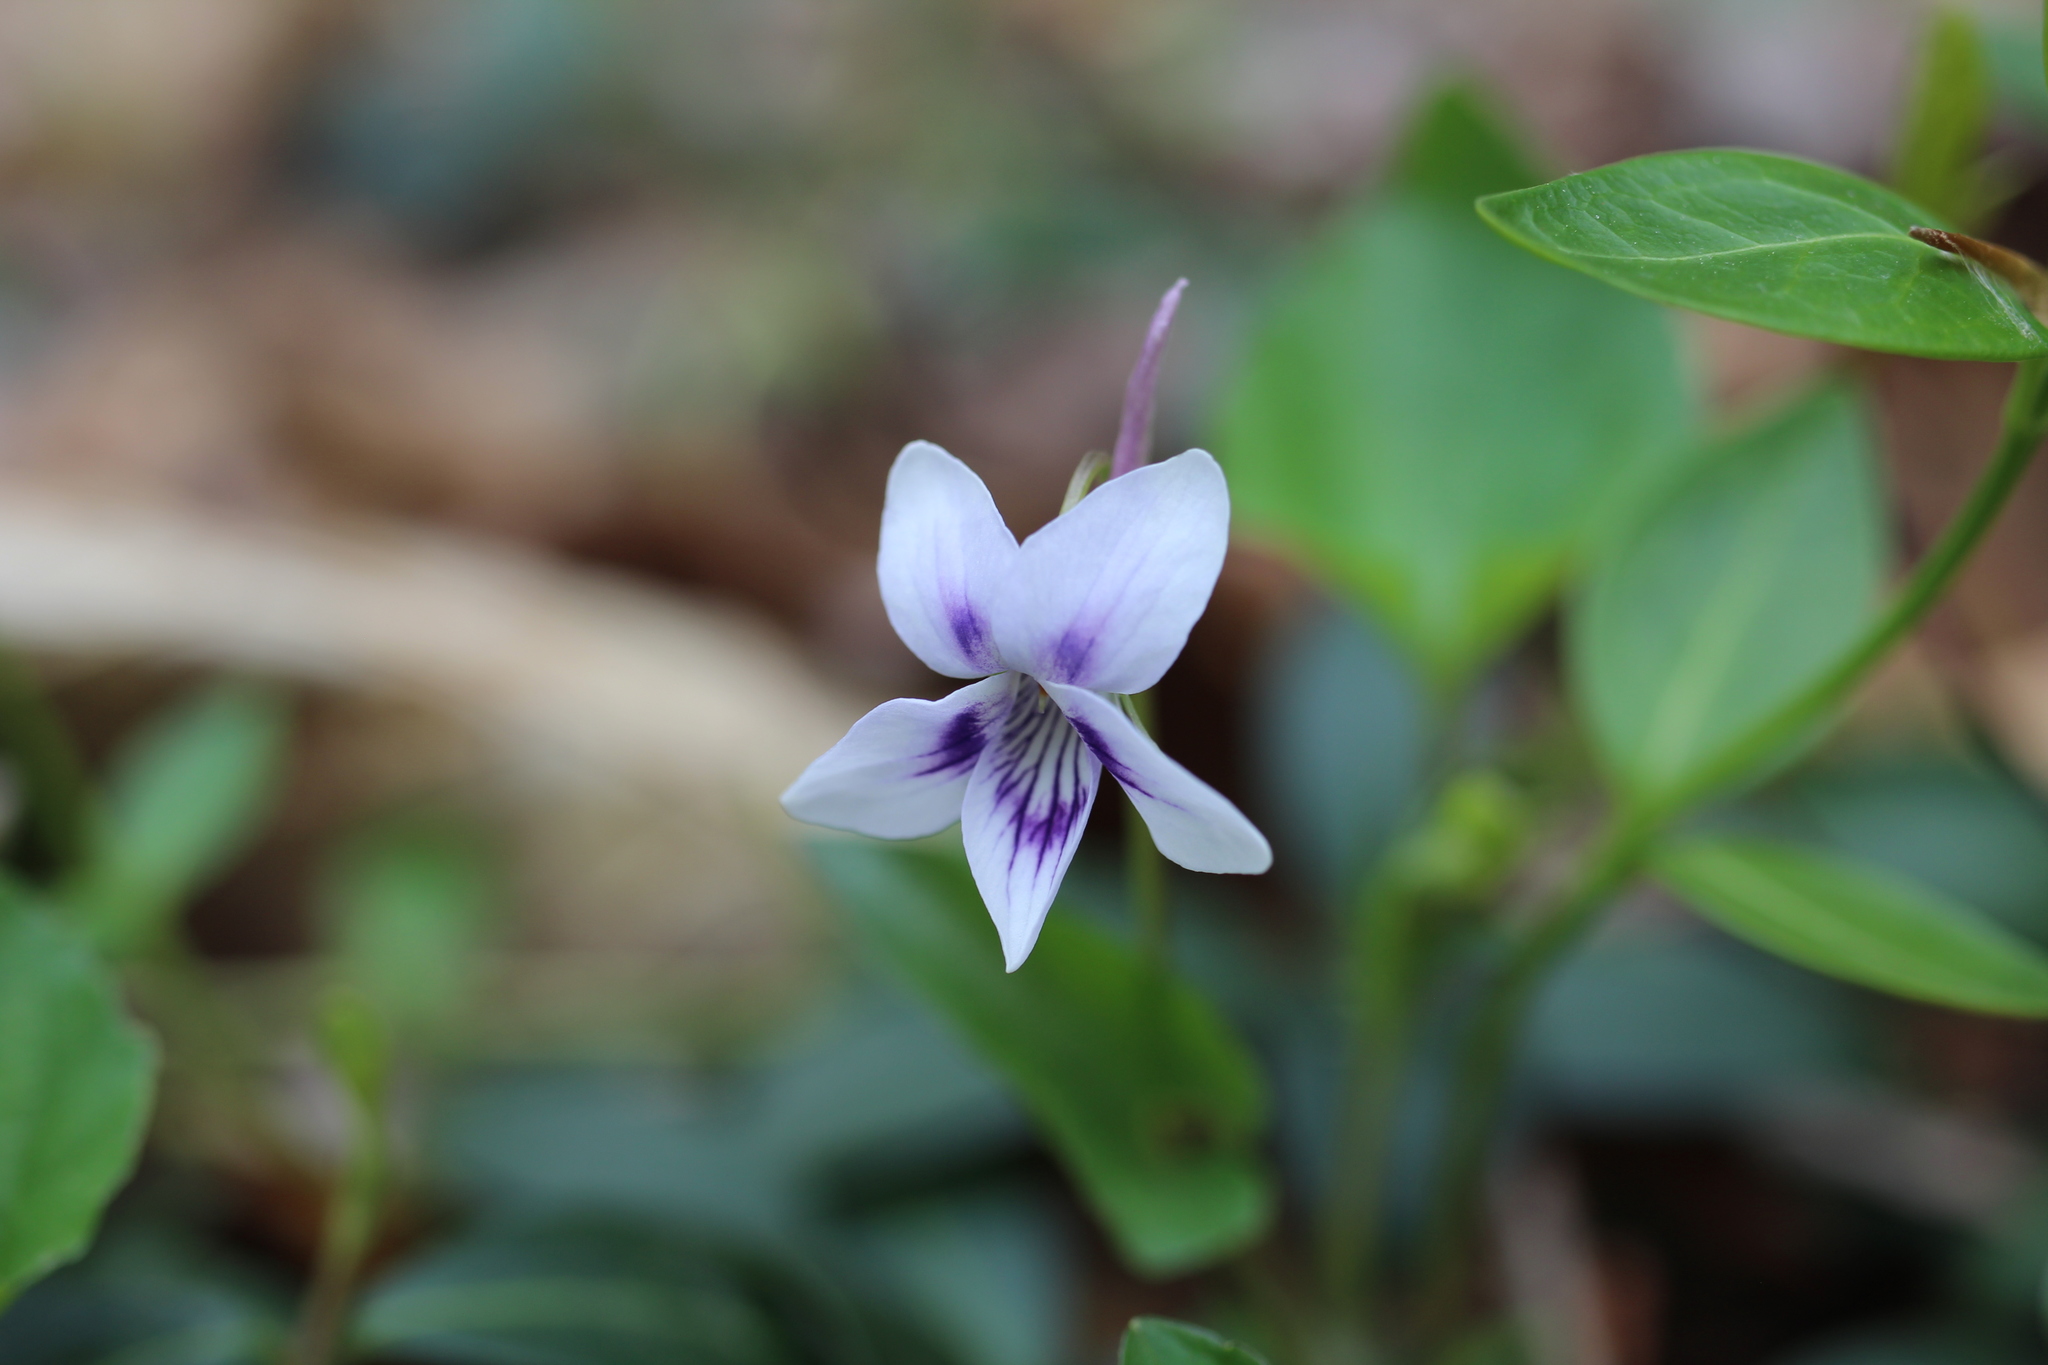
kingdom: Plantae
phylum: Tracheophyta
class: Magnoliopsida
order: Malpighiales
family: Violaceae
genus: Viola
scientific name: Viola rostrata
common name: Long-spur violet
